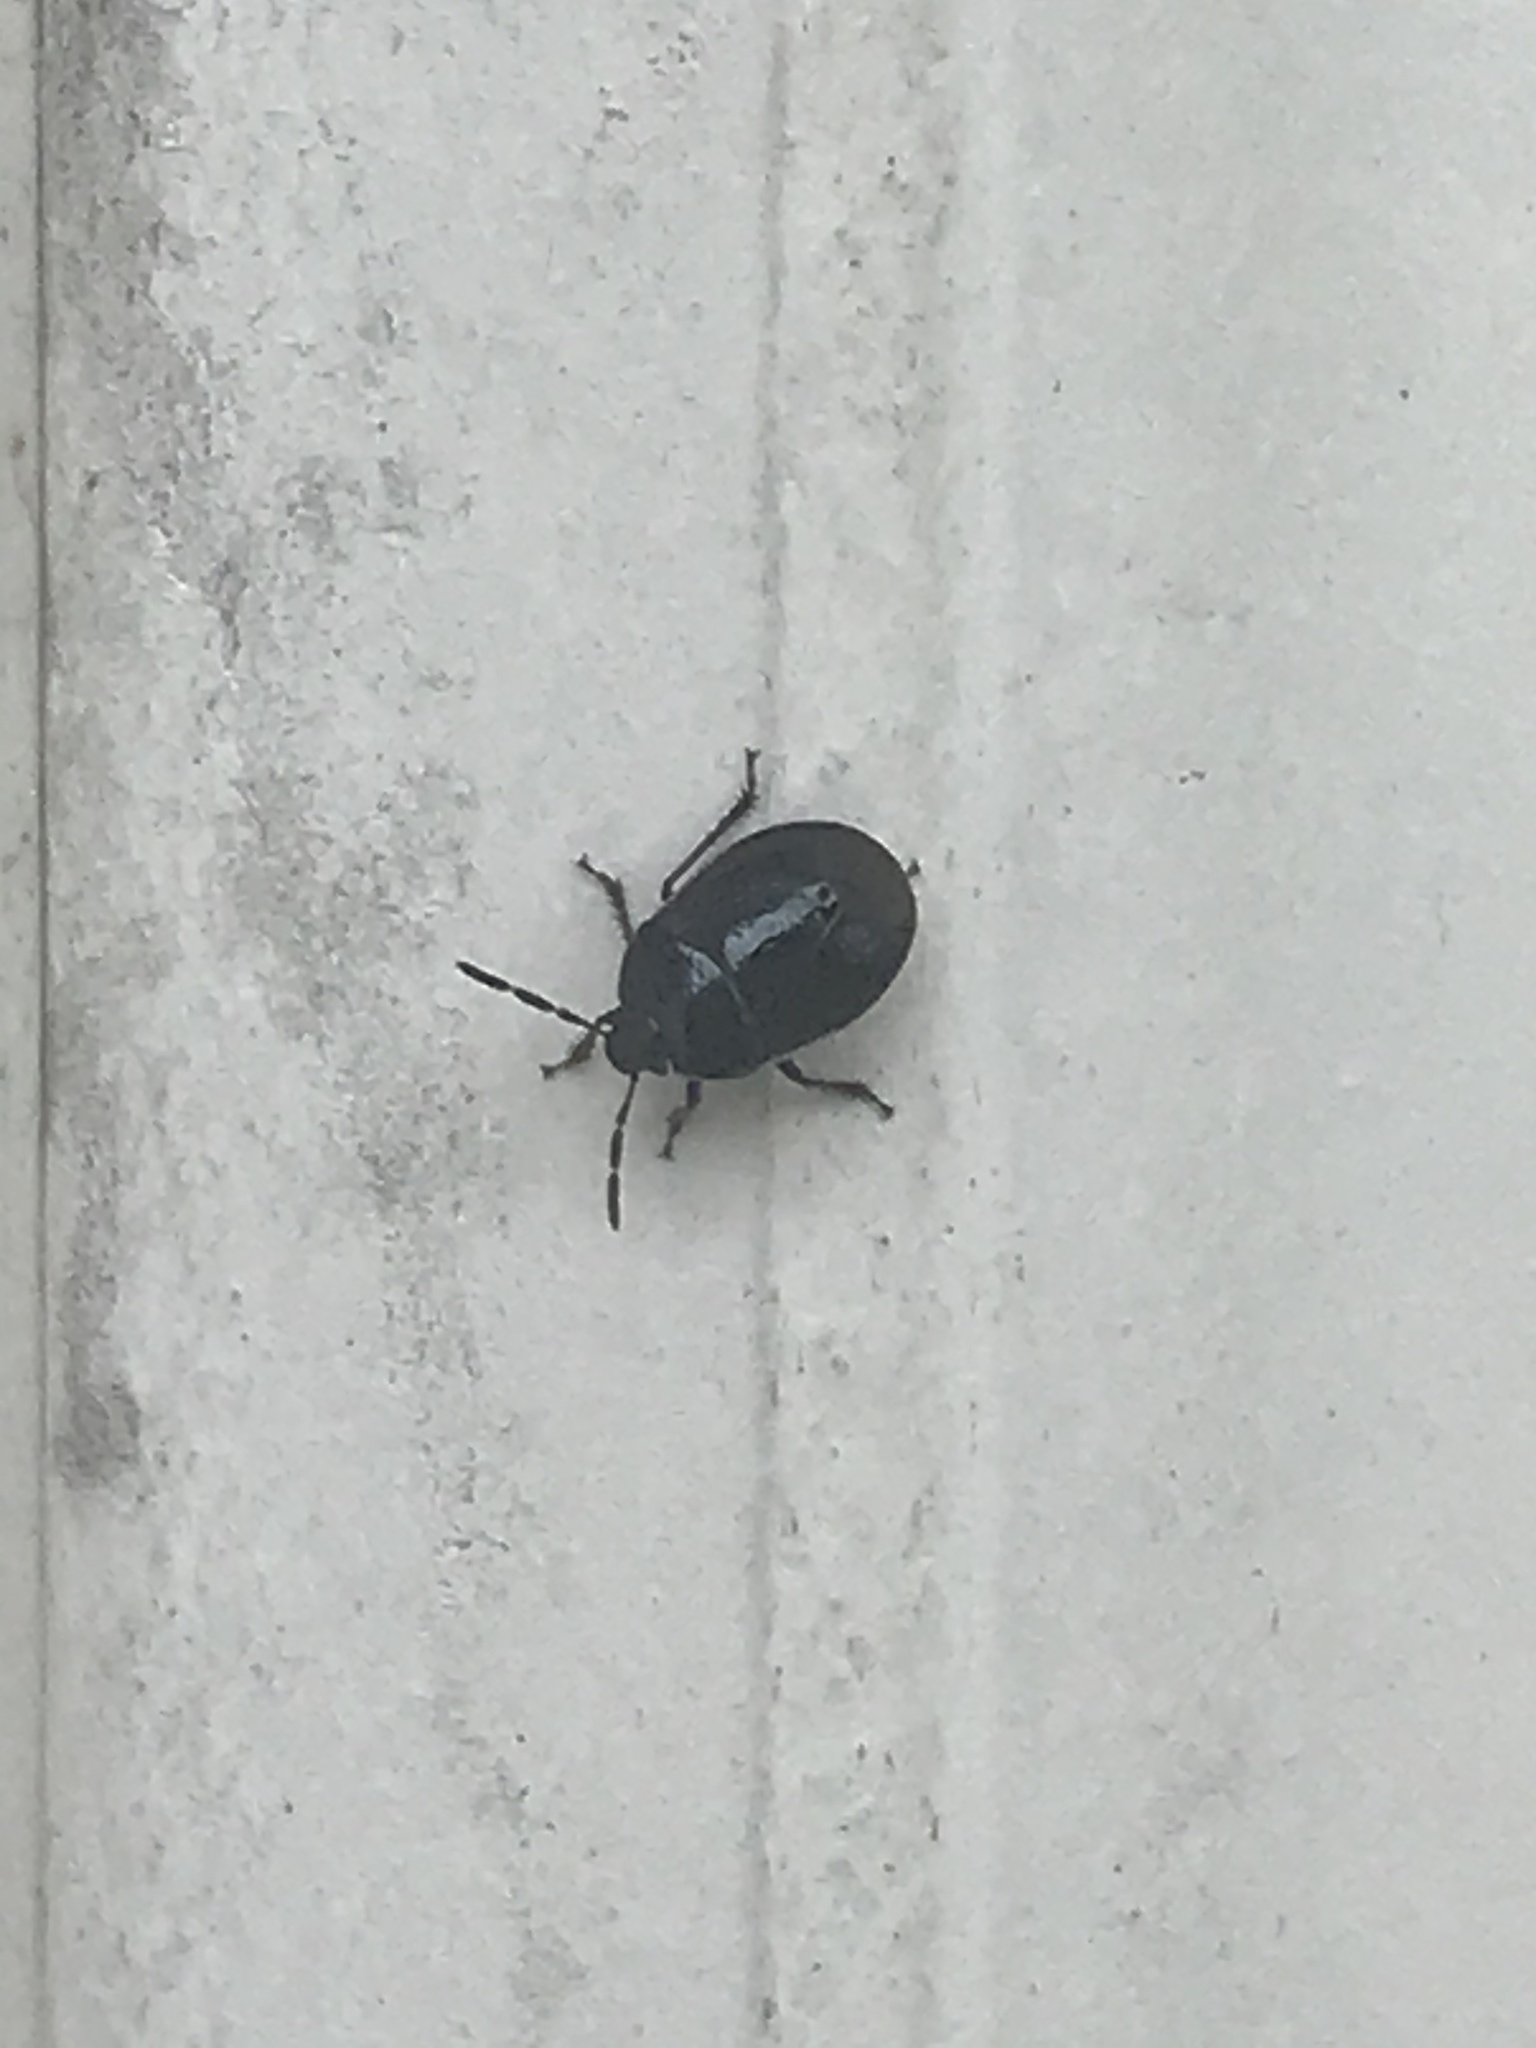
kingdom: Animalia
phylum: Arthropoda
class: Insecta
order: Hemiptera
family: Cydnidae
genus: Sehirus
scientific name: Sehirus cinctus
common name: White-margined burrower bug
